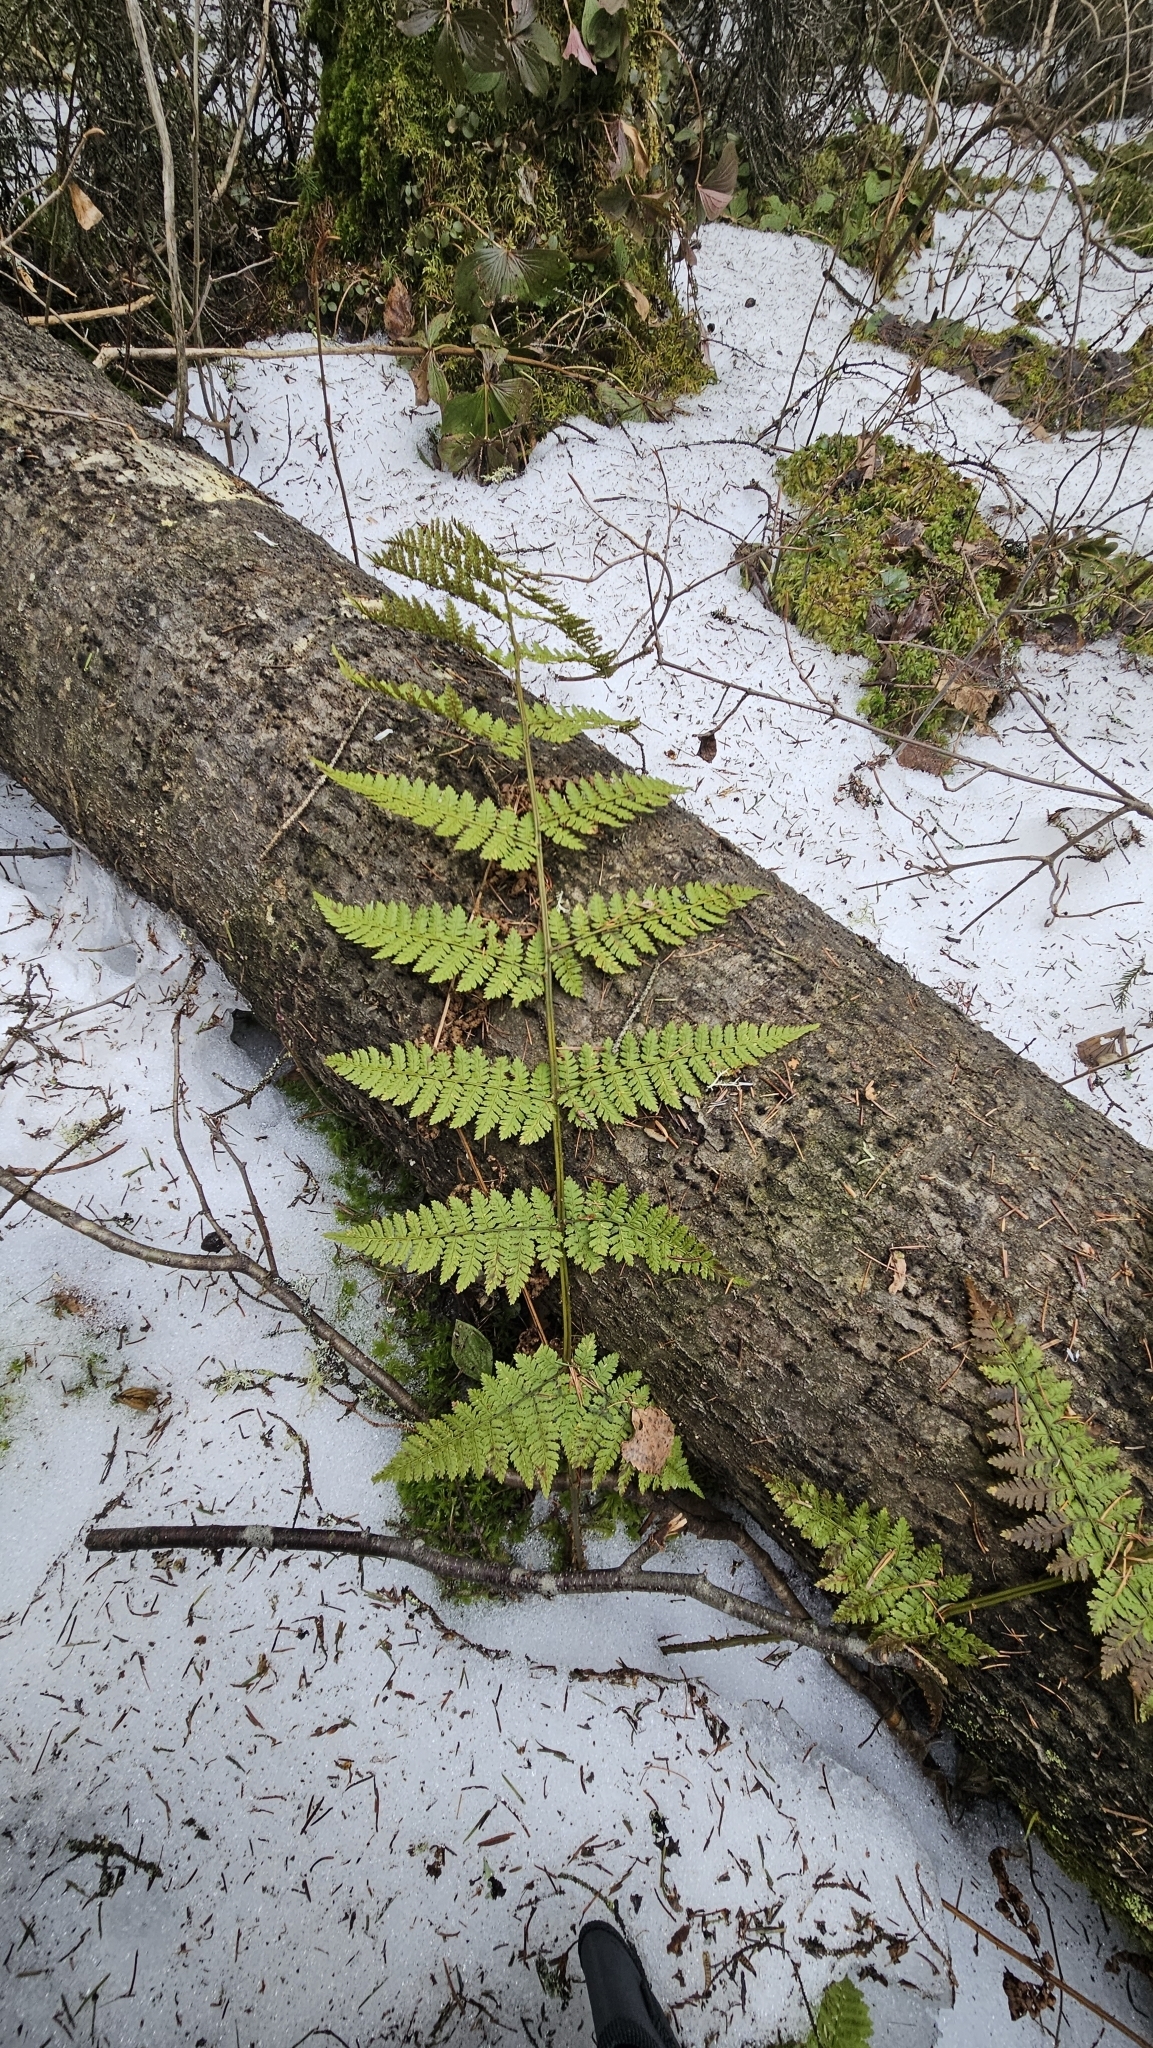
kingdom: Plantae
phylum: Tracheophyta
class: Polypodiopsida
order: Polypodiales
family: Dryopteridaceae
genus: Dryopteris
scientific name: Dryopteris intermedia
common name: Evergreen wood fern
